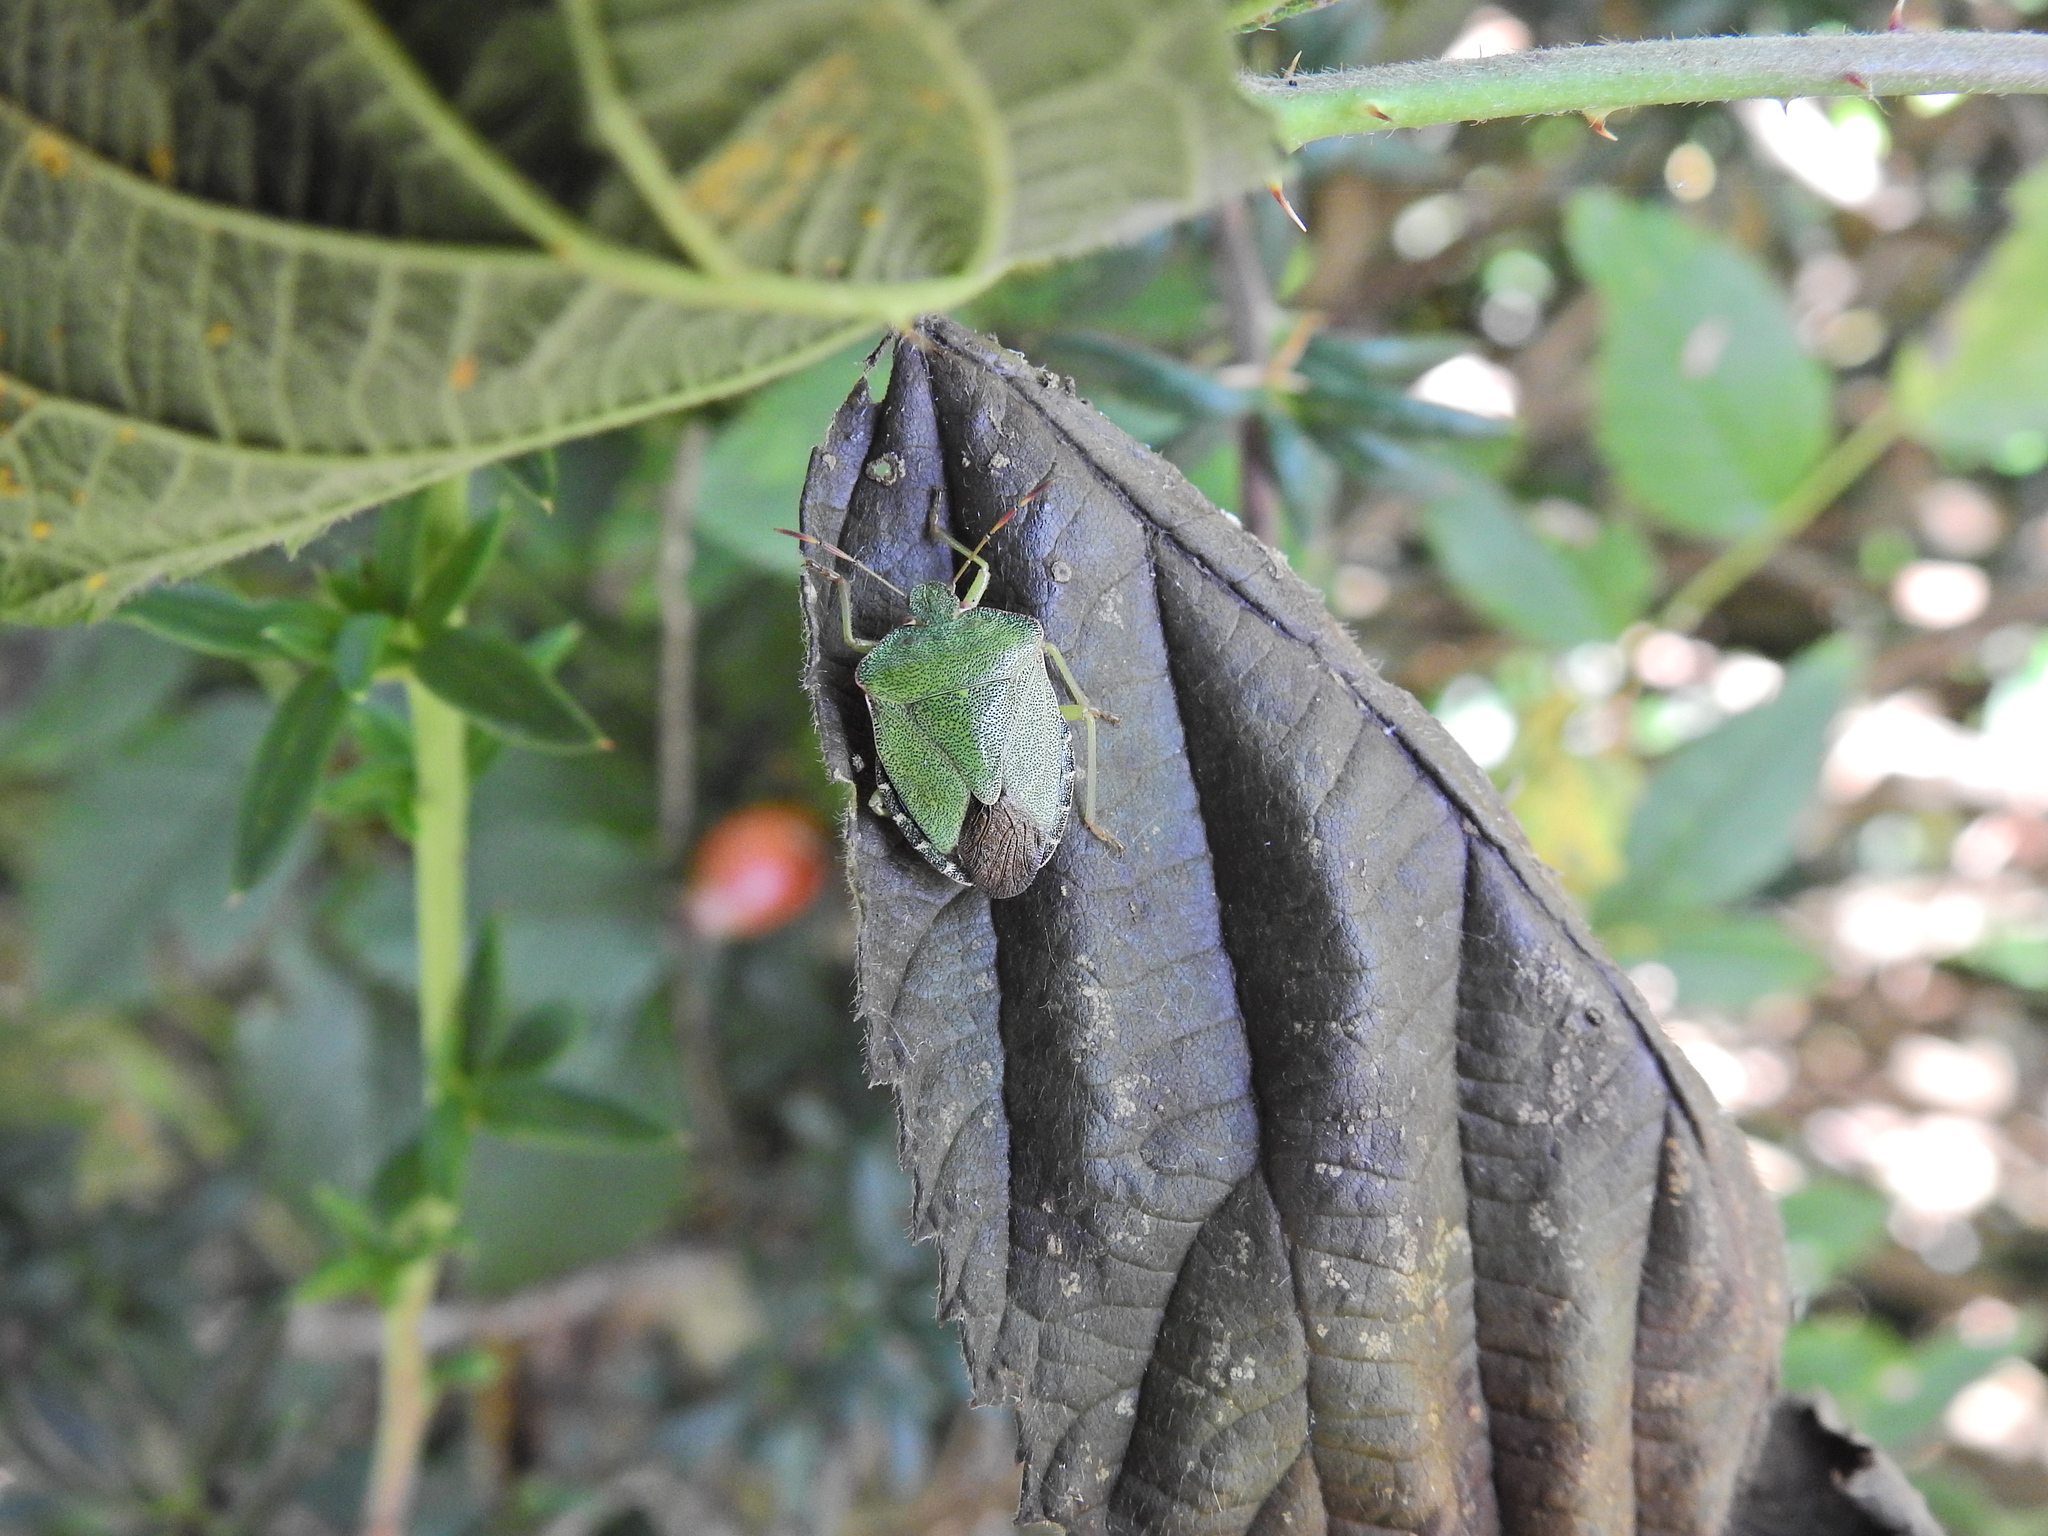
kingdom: Animalia
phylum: Arthropoda
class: Insecta
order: Hemiptera
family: Pentatomidae
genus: Palomena
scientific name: Palomena prasina
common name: Green shieldbug
